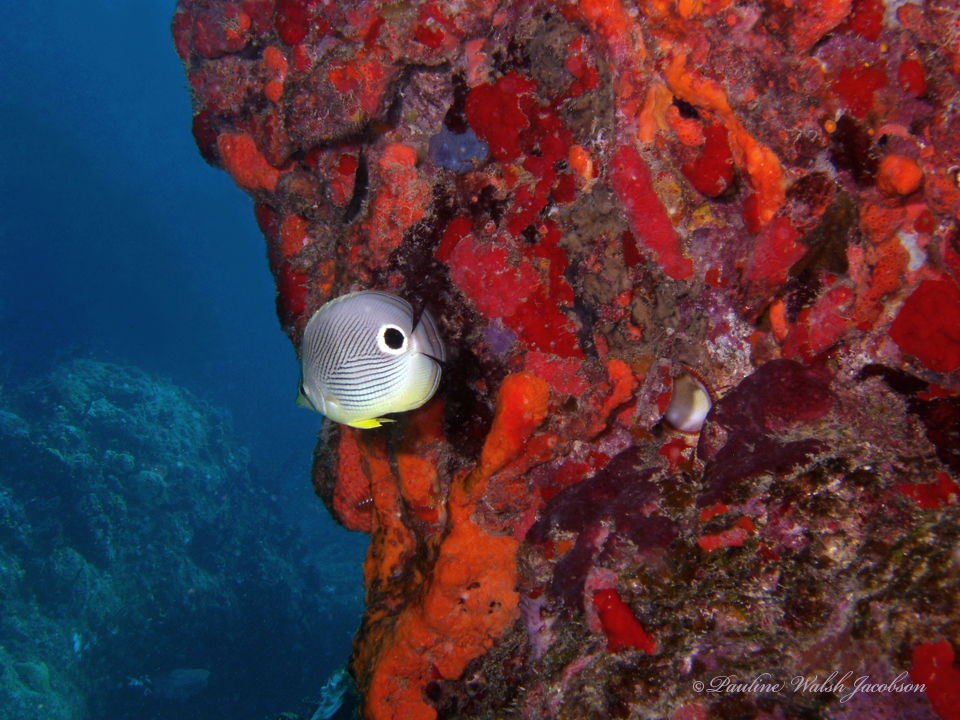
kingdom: Animalia
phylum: Chordata
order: Perciformes
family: Chaetodontidae
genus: Chaetodon
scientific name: Chaetodon capistratus
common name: Kete
